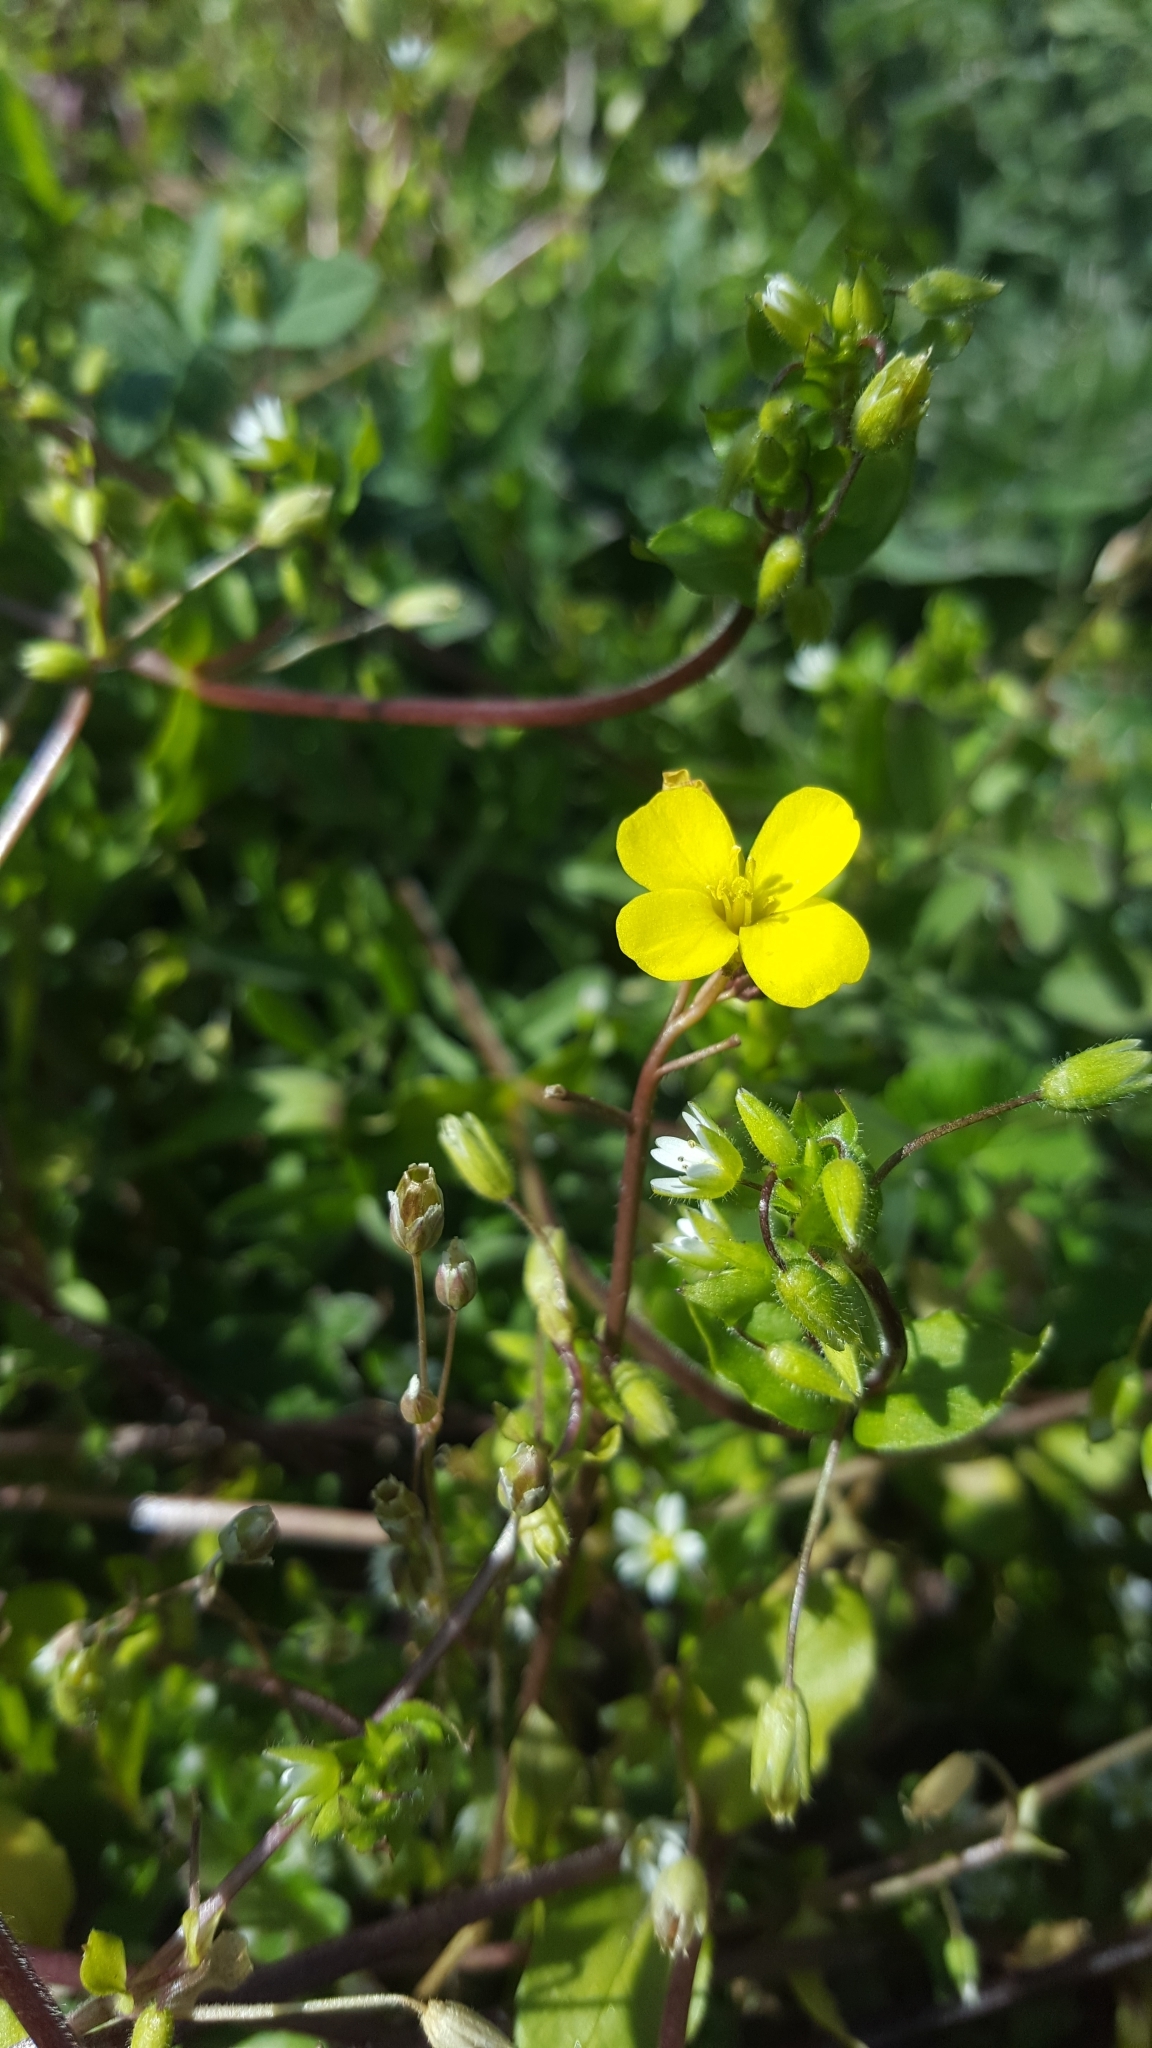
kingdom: Plantae
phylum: Tracheophyta
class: Magnoliopsida
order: Brassicales
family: Brassicaceae
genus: Diplotaxis
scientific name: Diplotaxis muralis
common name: Annual wall-rocket
